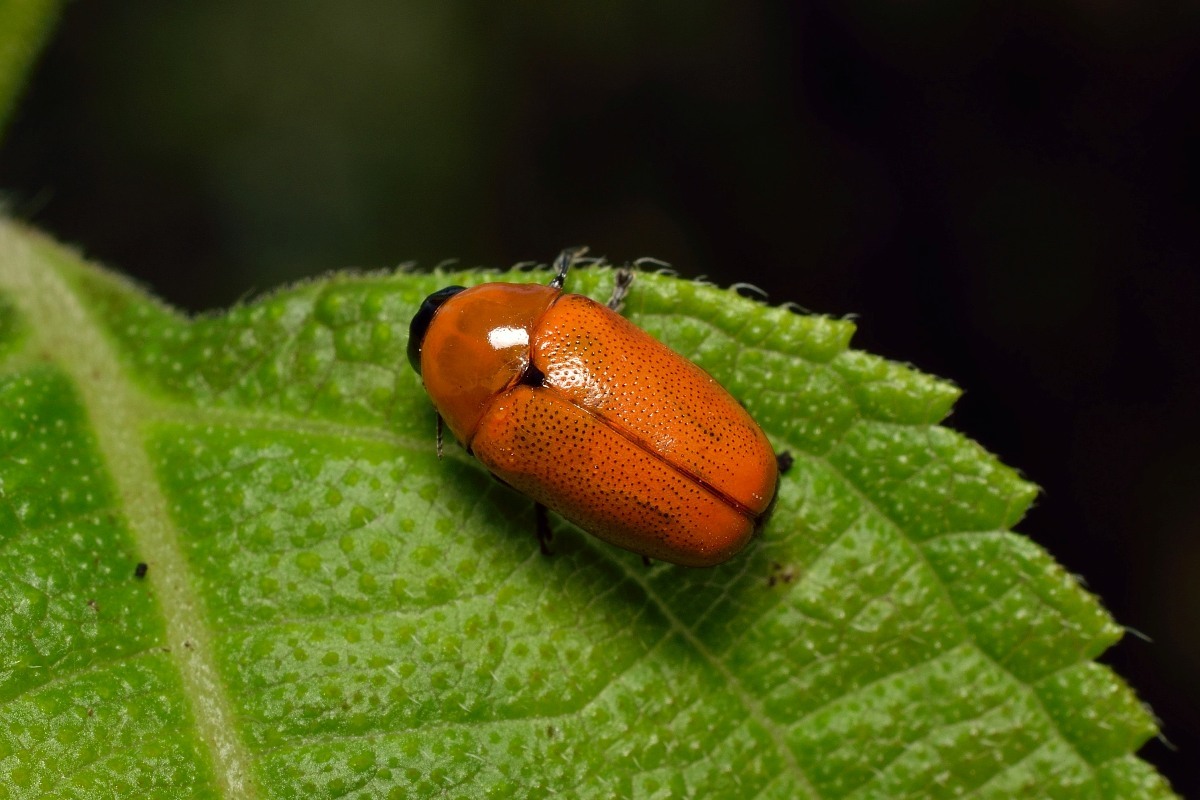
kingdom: Animalia
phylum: Arthropoda
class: Insecta
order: Coleoptera
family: Chrysomelidae
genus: Diapromorpha
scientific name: Diapromorpha
